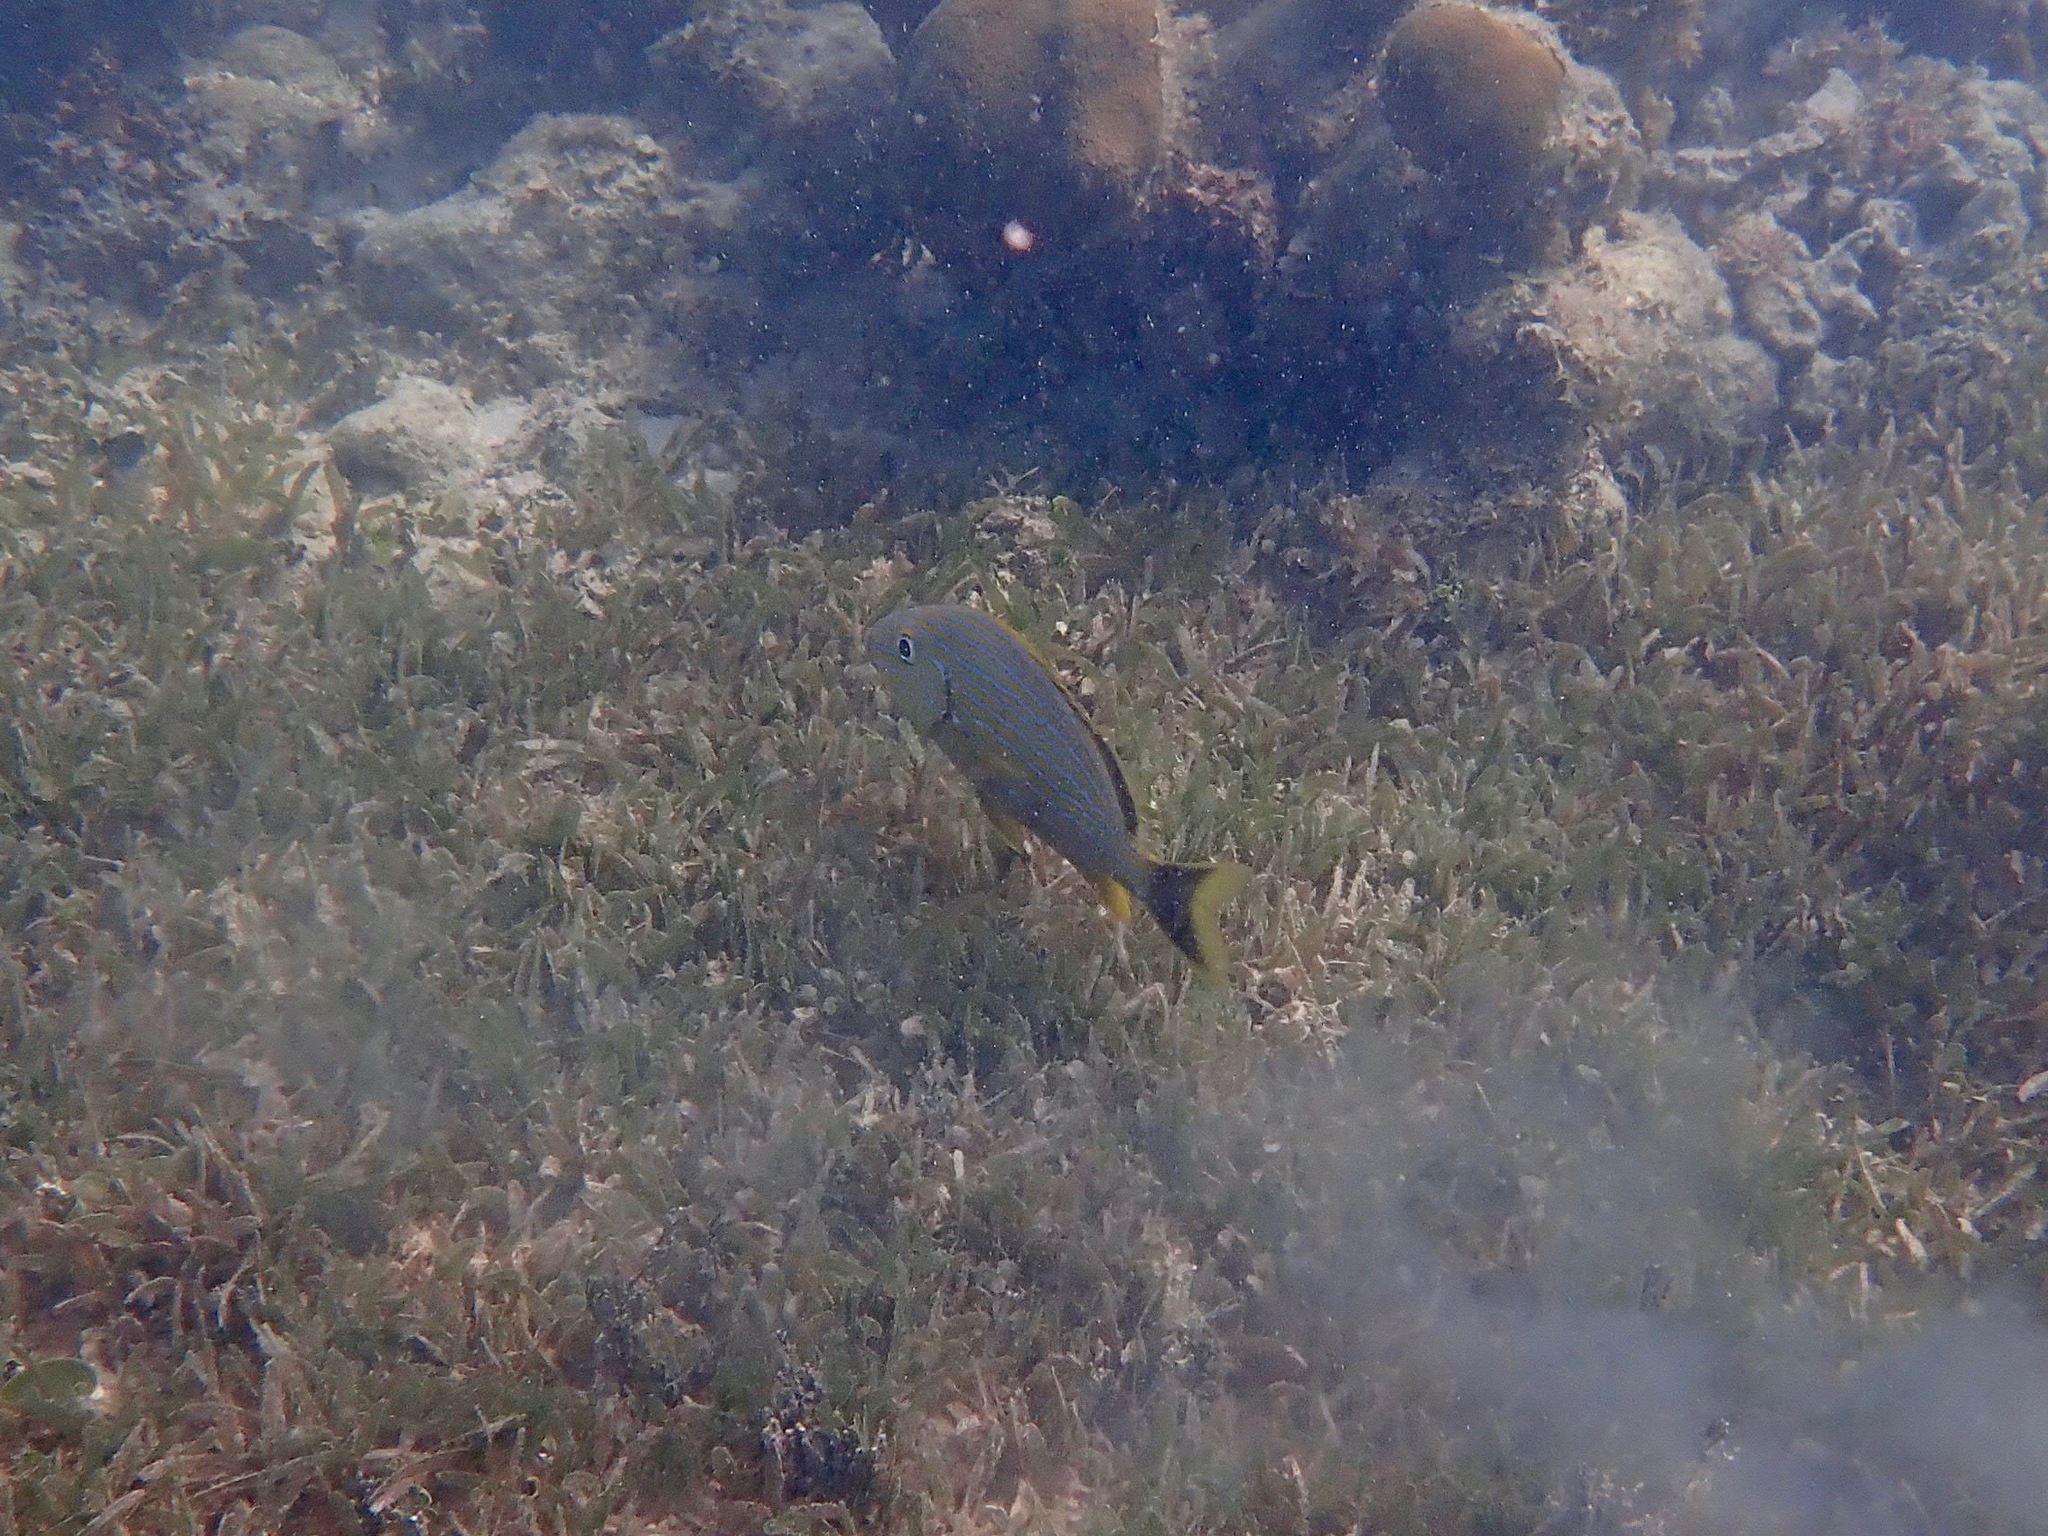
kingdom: Animalia
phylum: Chordata
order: Perciformes
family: Haemulidae
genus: Haemulon
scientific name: Haemulon sciurus
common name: Bluestriped grunt
